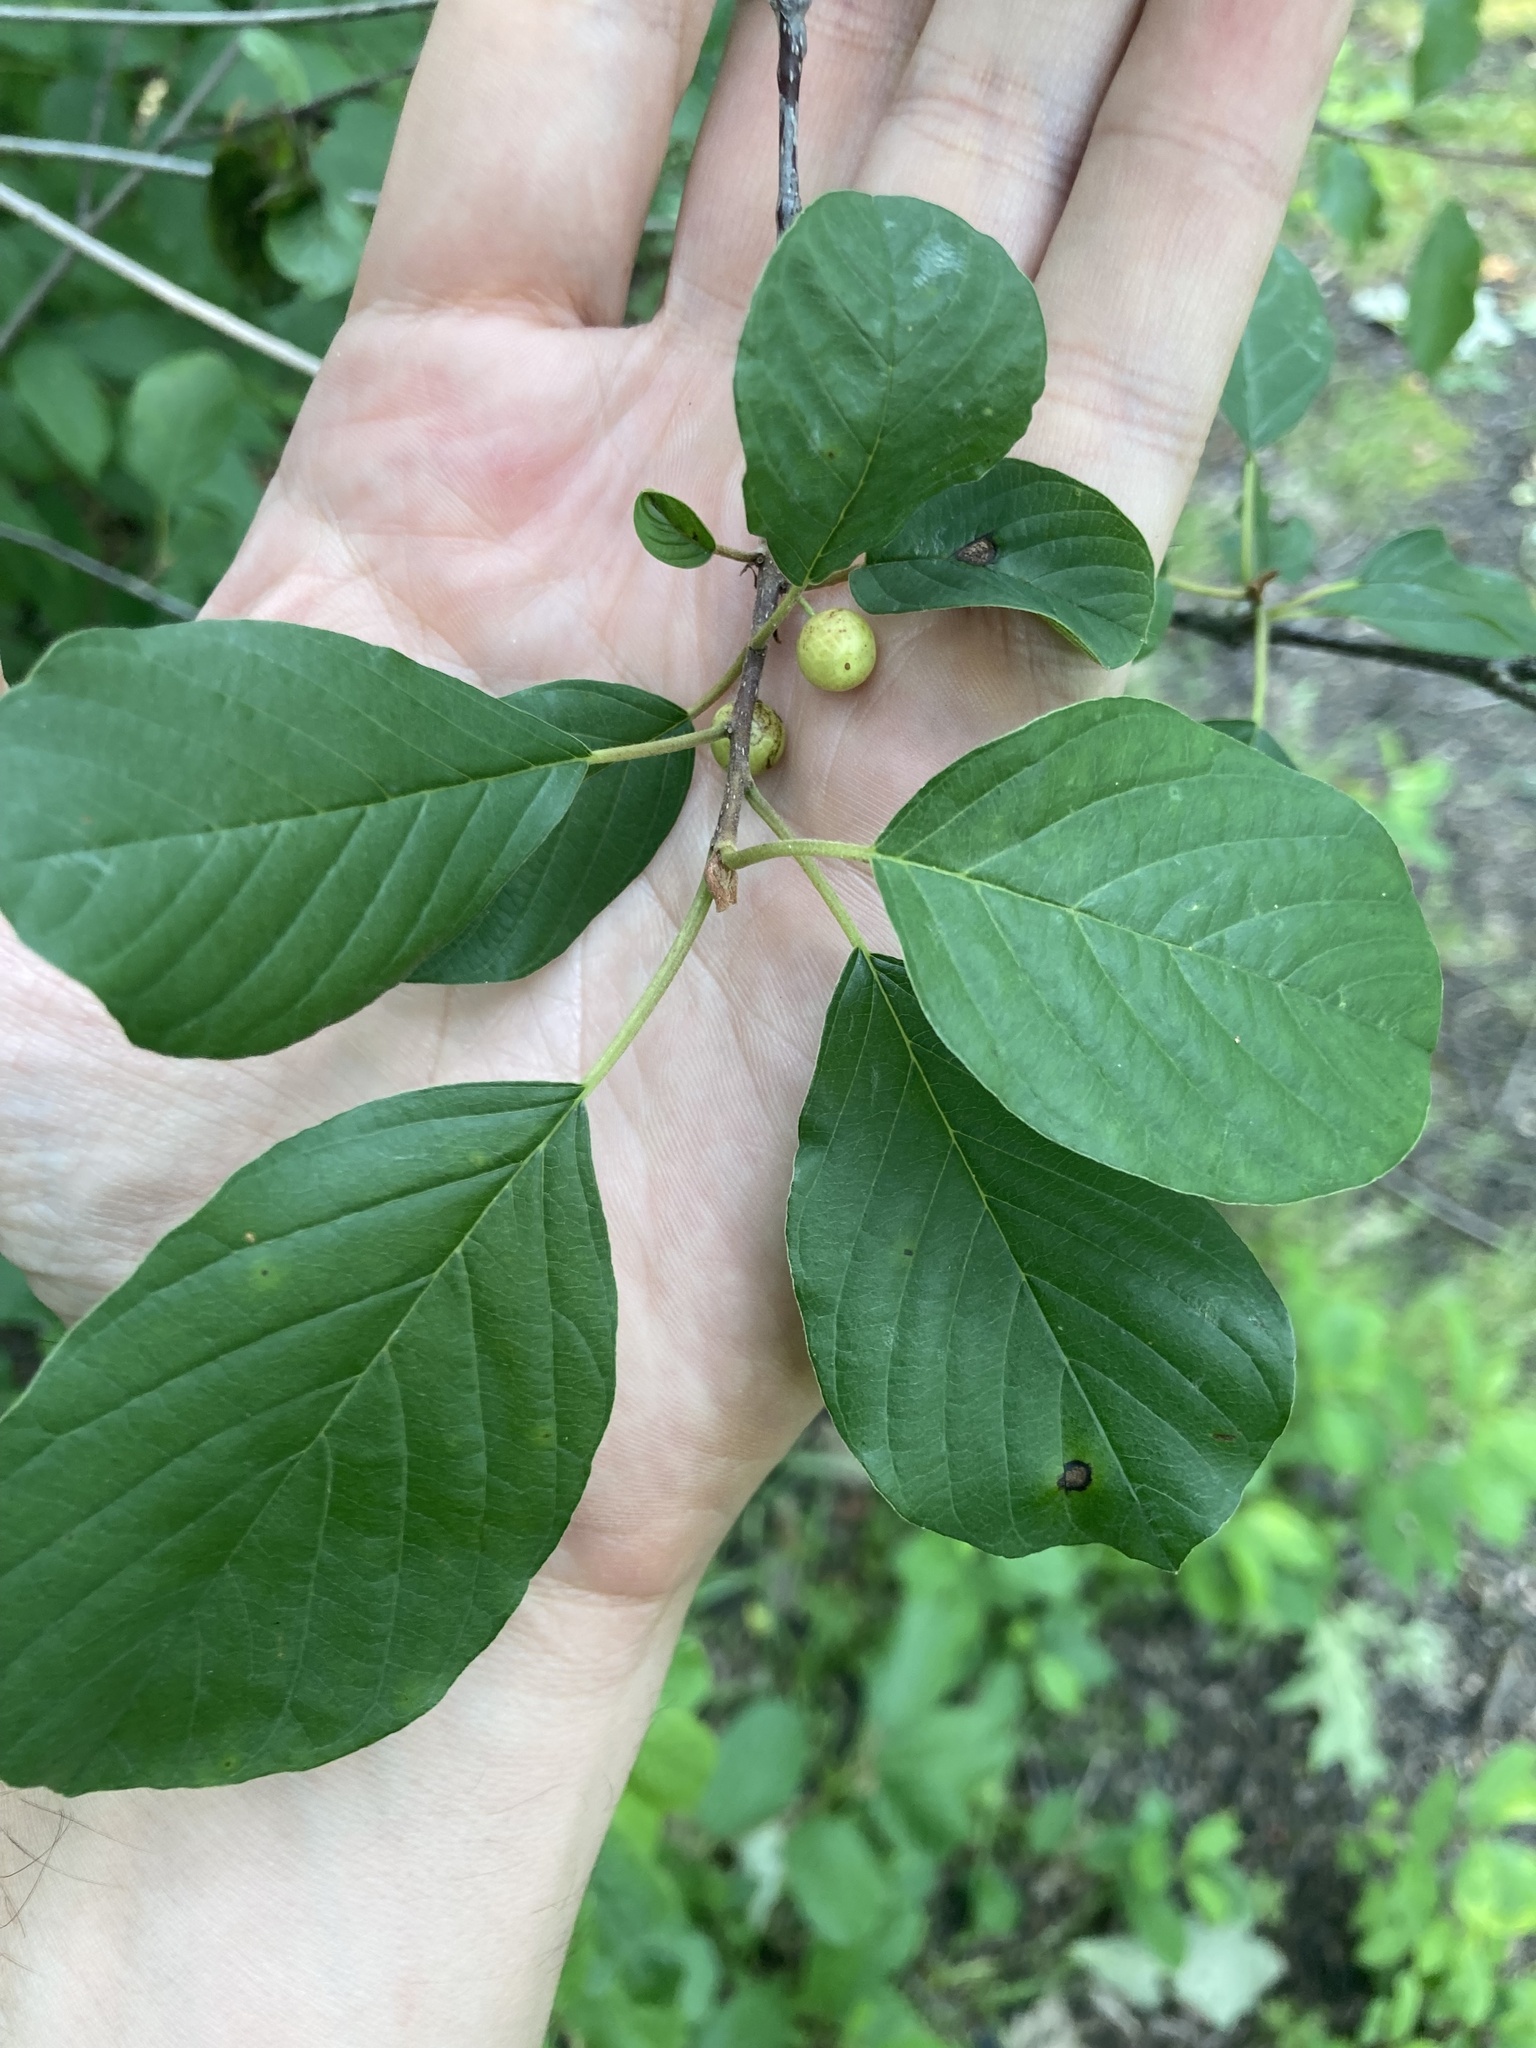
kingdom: Plantae
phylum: Tracheophyta
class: Magnoliopsida
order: Rosales
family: Rhamnaceae
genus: Frangula
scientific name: Frangula alnus
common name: Alder buckthorn
